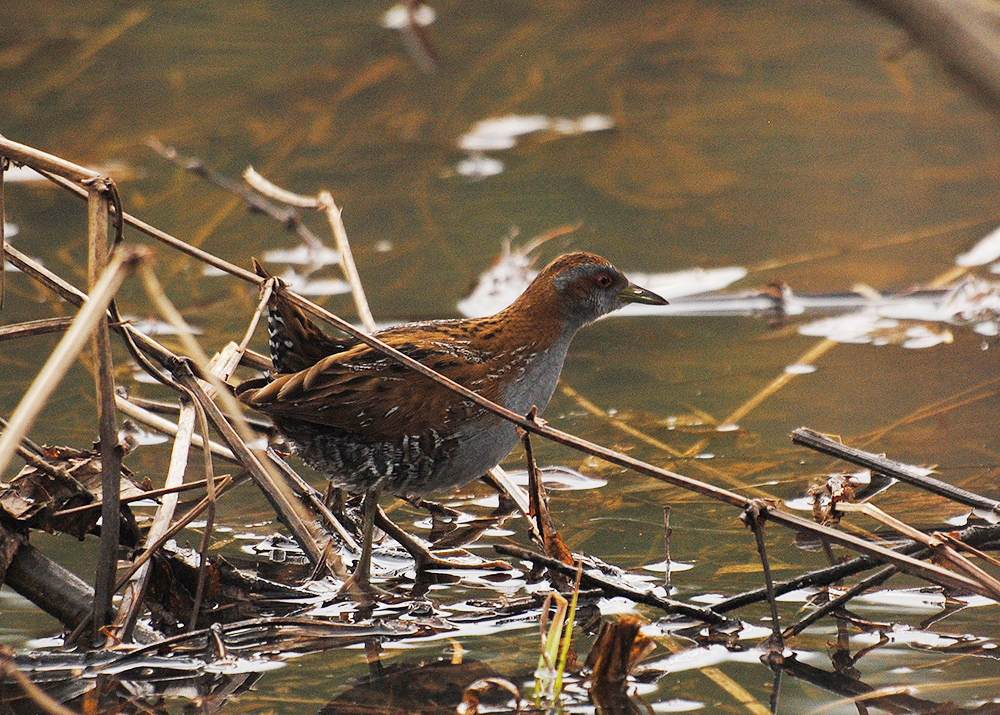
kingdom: Animalia
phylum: Chordata
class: Aves
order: Gruiformes
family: Rallidae
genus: Porzana
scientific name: Porzana pusilla
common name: Baillon's crake
